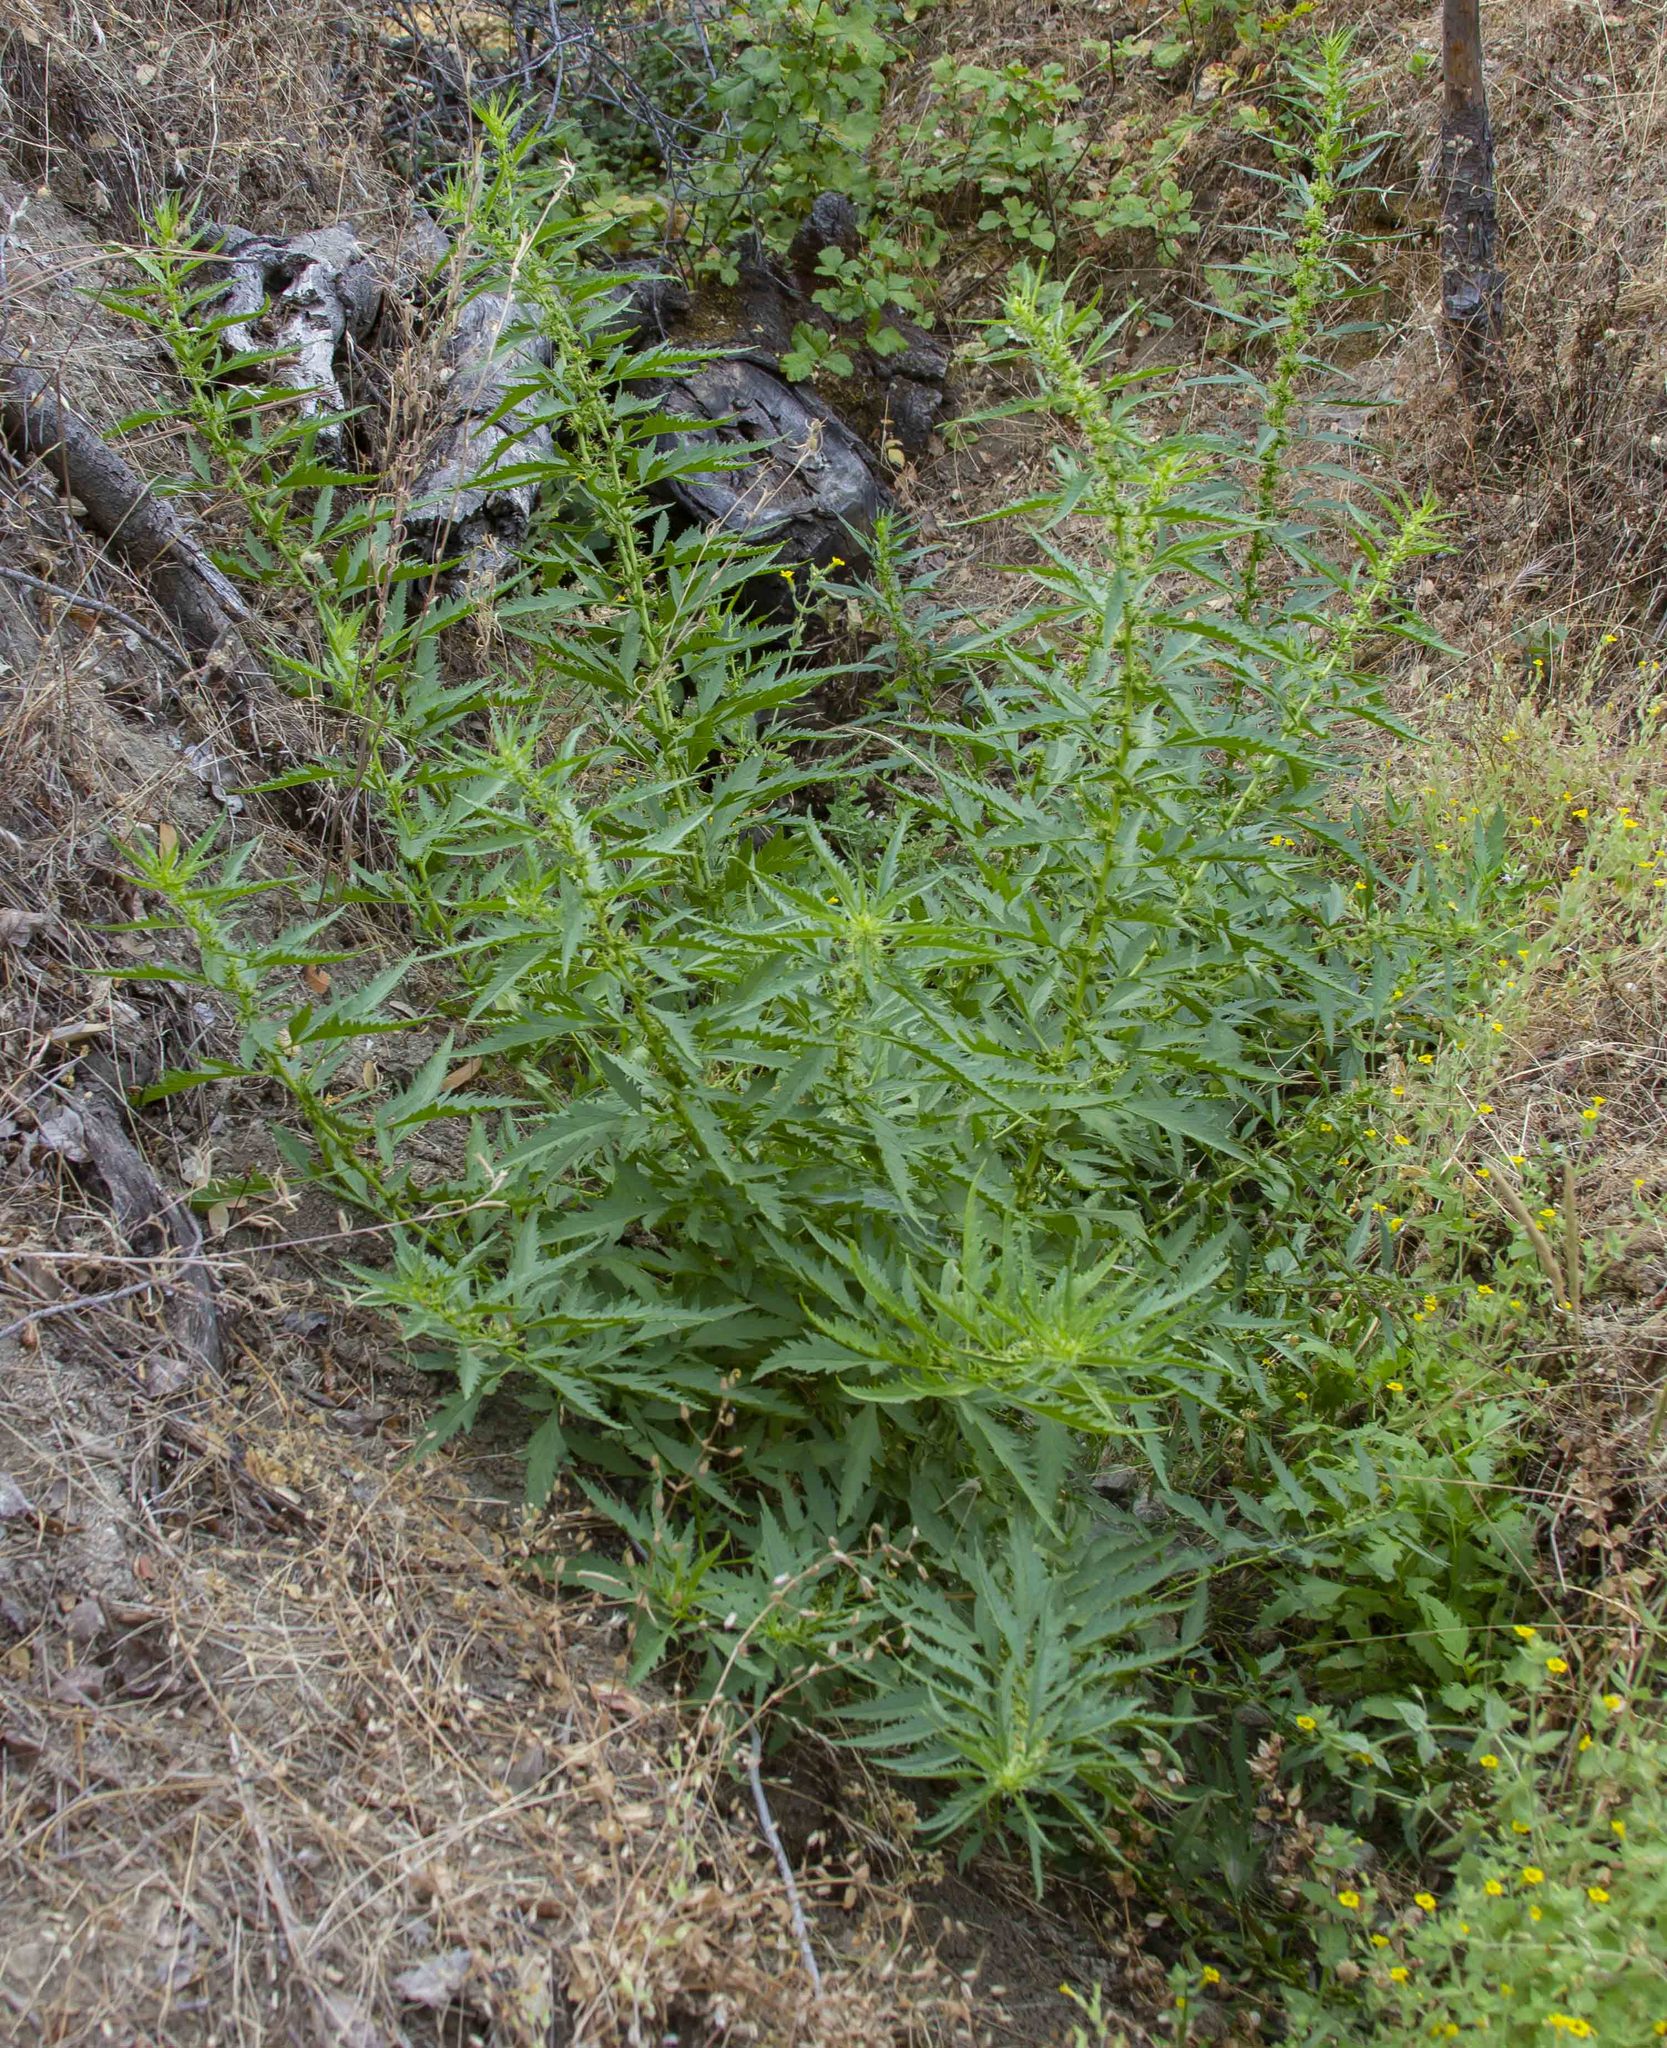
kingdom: Plantae
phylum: Tracheophyta
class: Magnoliopsida
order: Cucurbitales
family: Datiscaceae
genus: Datisca
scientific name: Datisca glomerata
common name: Durango-root
